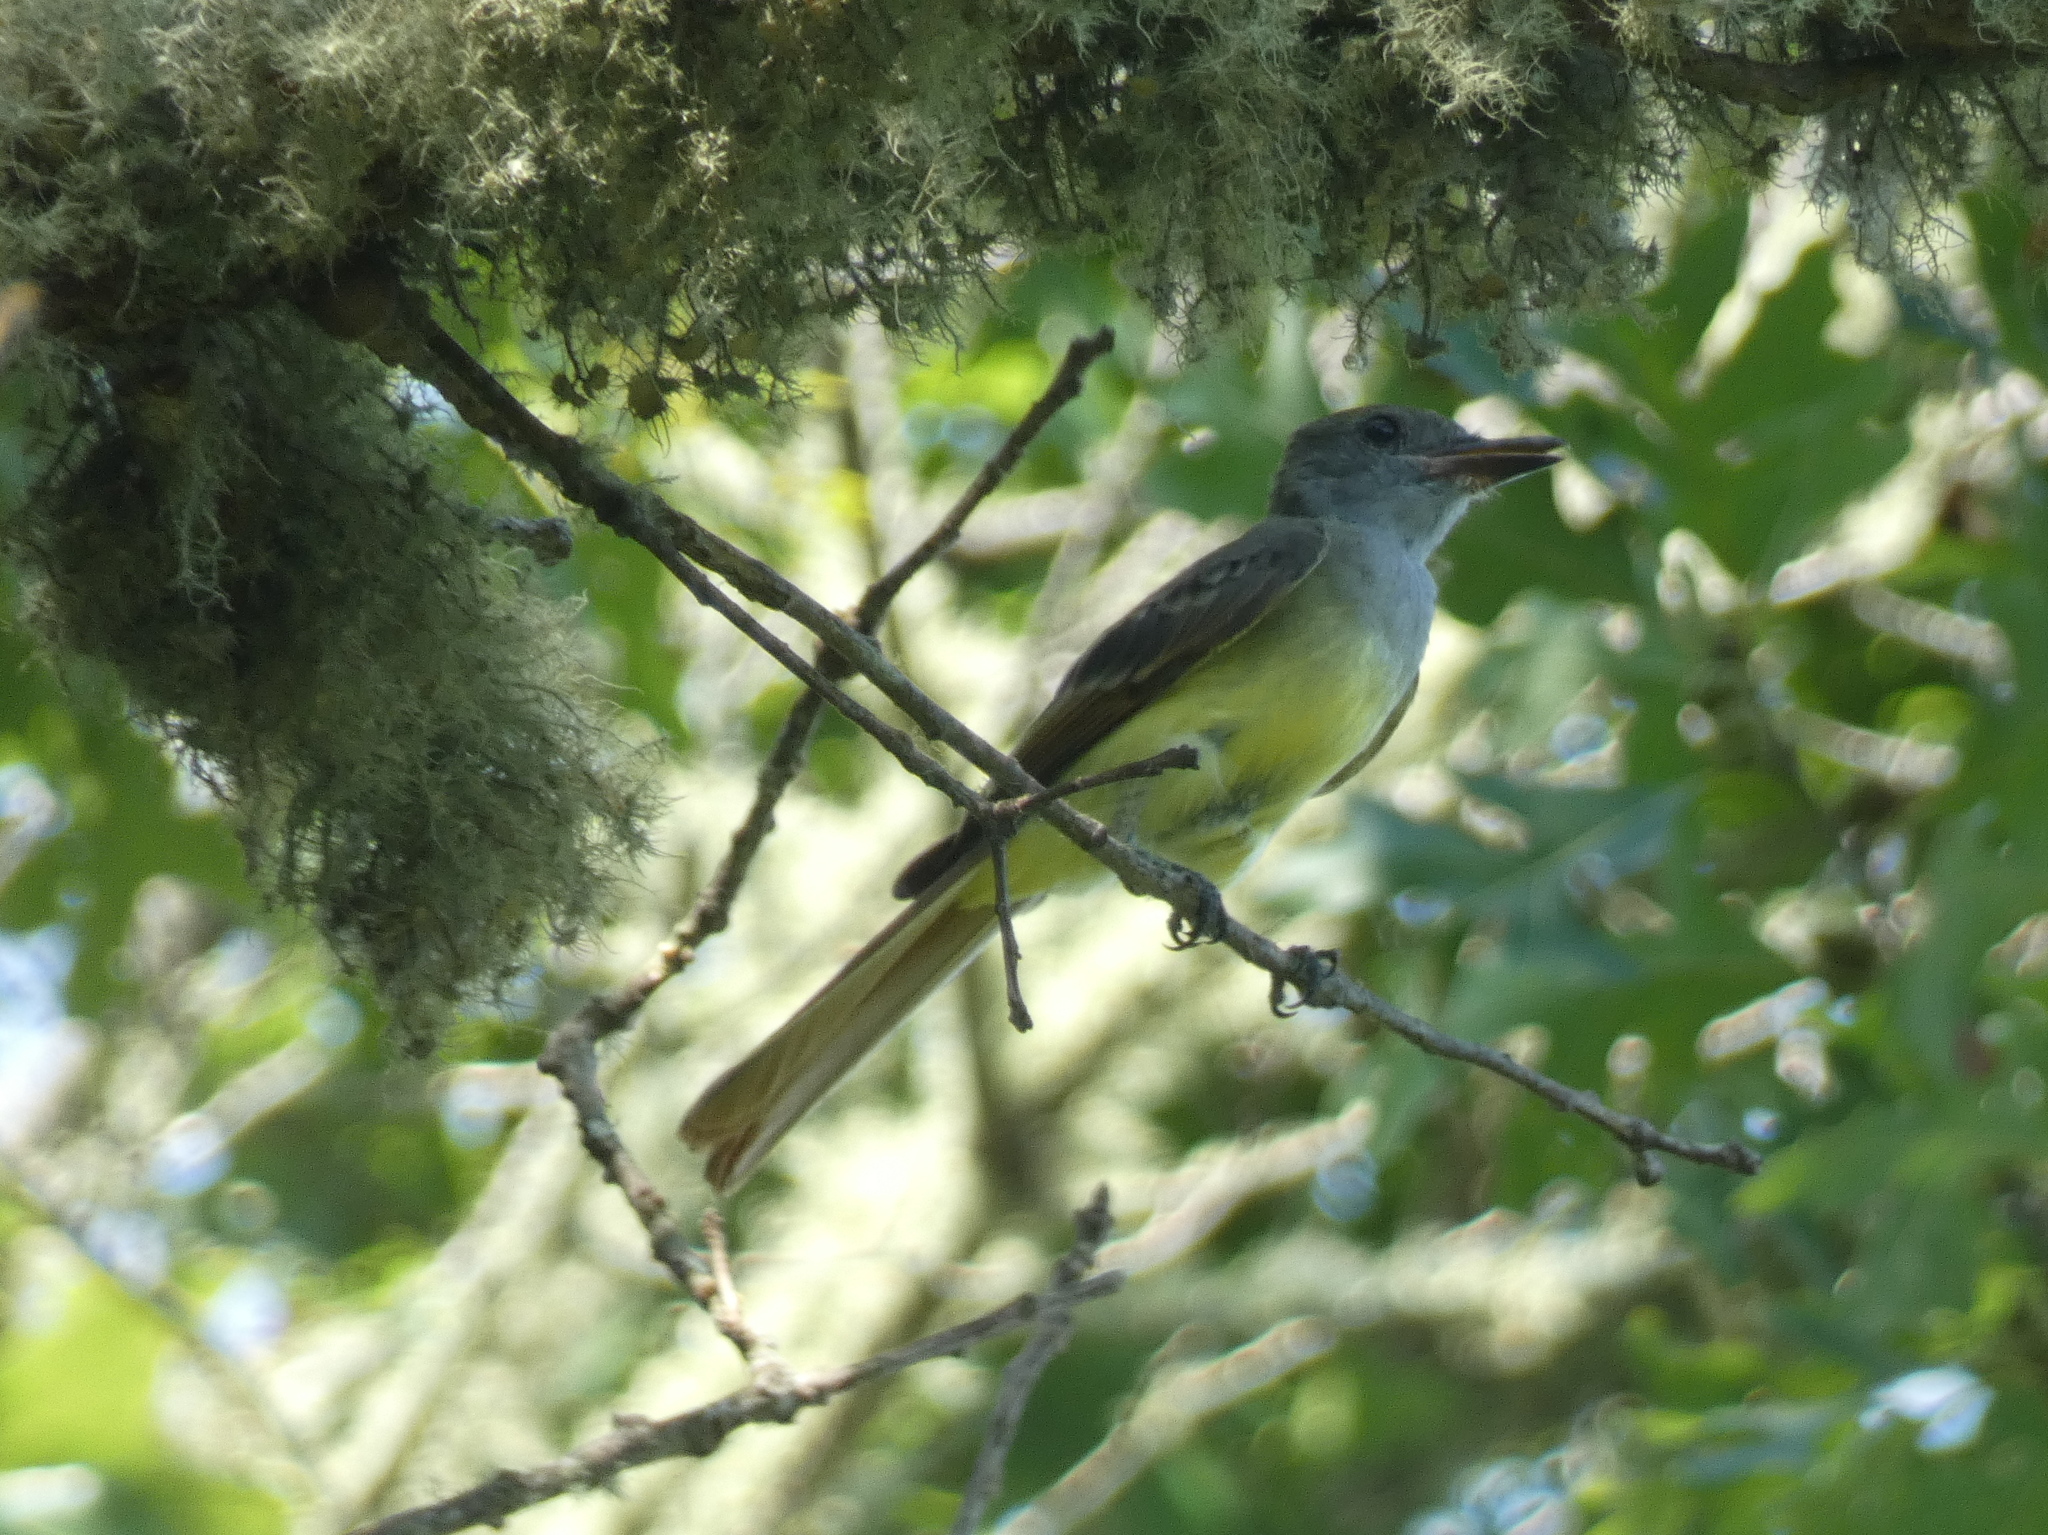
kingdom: Animalia
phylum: Chordata
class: Aves
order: Passeriformes
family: Tyrannidae
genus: Myiarchus
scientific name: Myiarchus crinitus
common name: Great crested flycatcher
